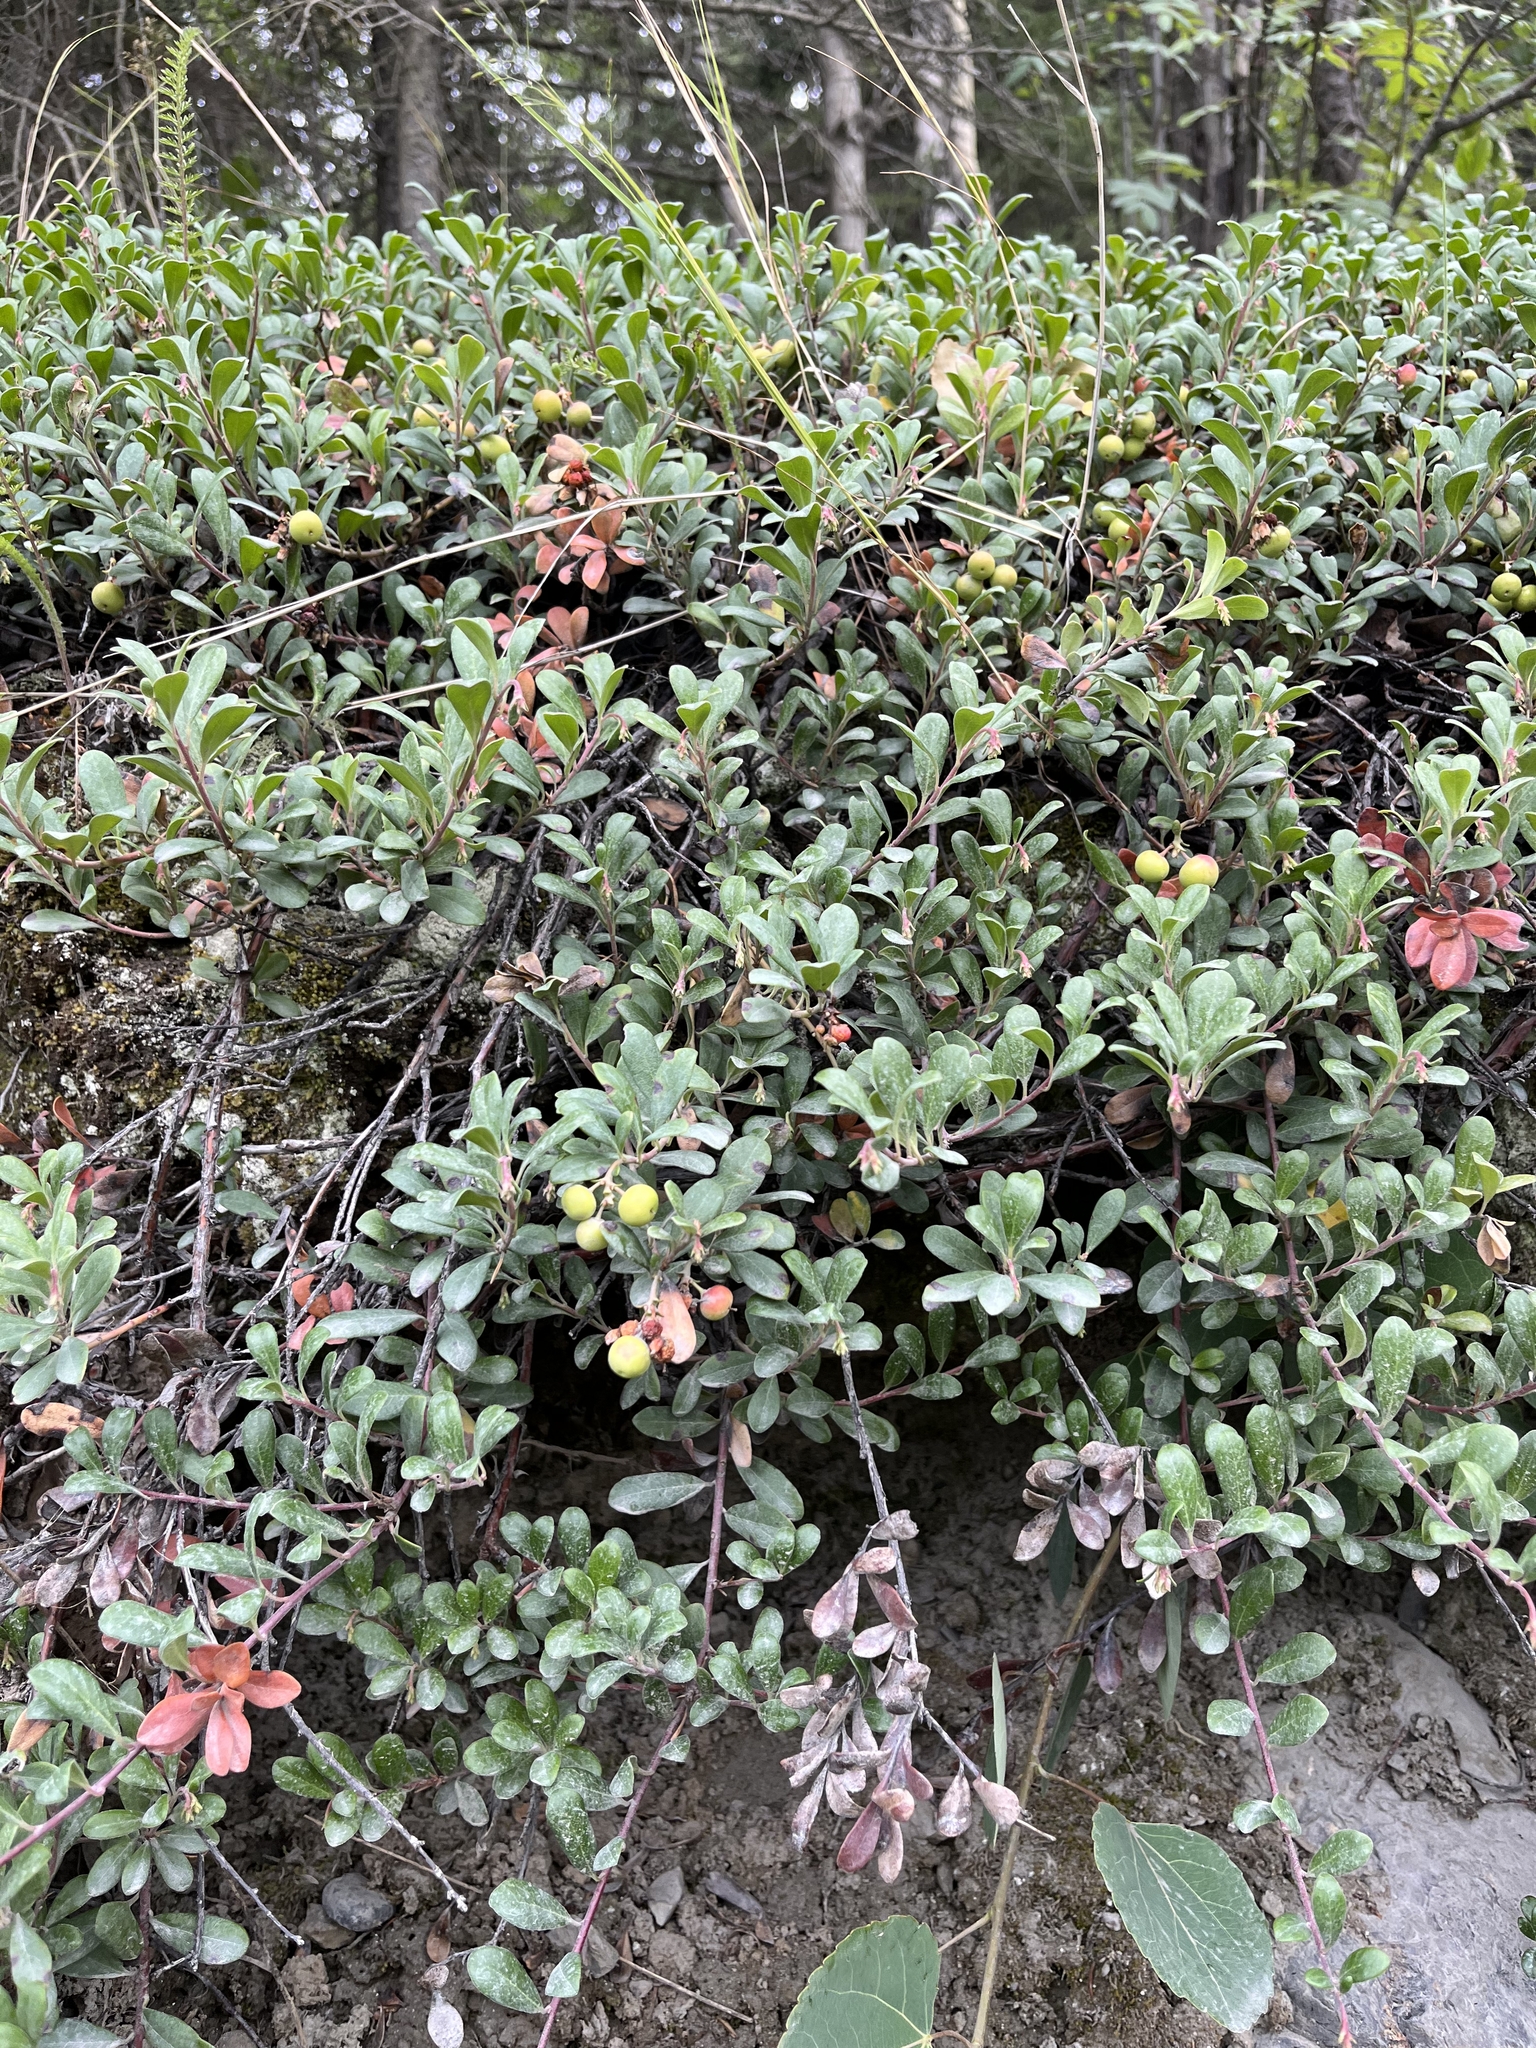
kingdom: Plantae
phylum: Tracheophyta
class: Magnoliopsida
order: Ericales
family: Ericaceae
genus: Arctostaphylos
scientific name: Arctostaphylos uva-ursi
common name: Bearberry
